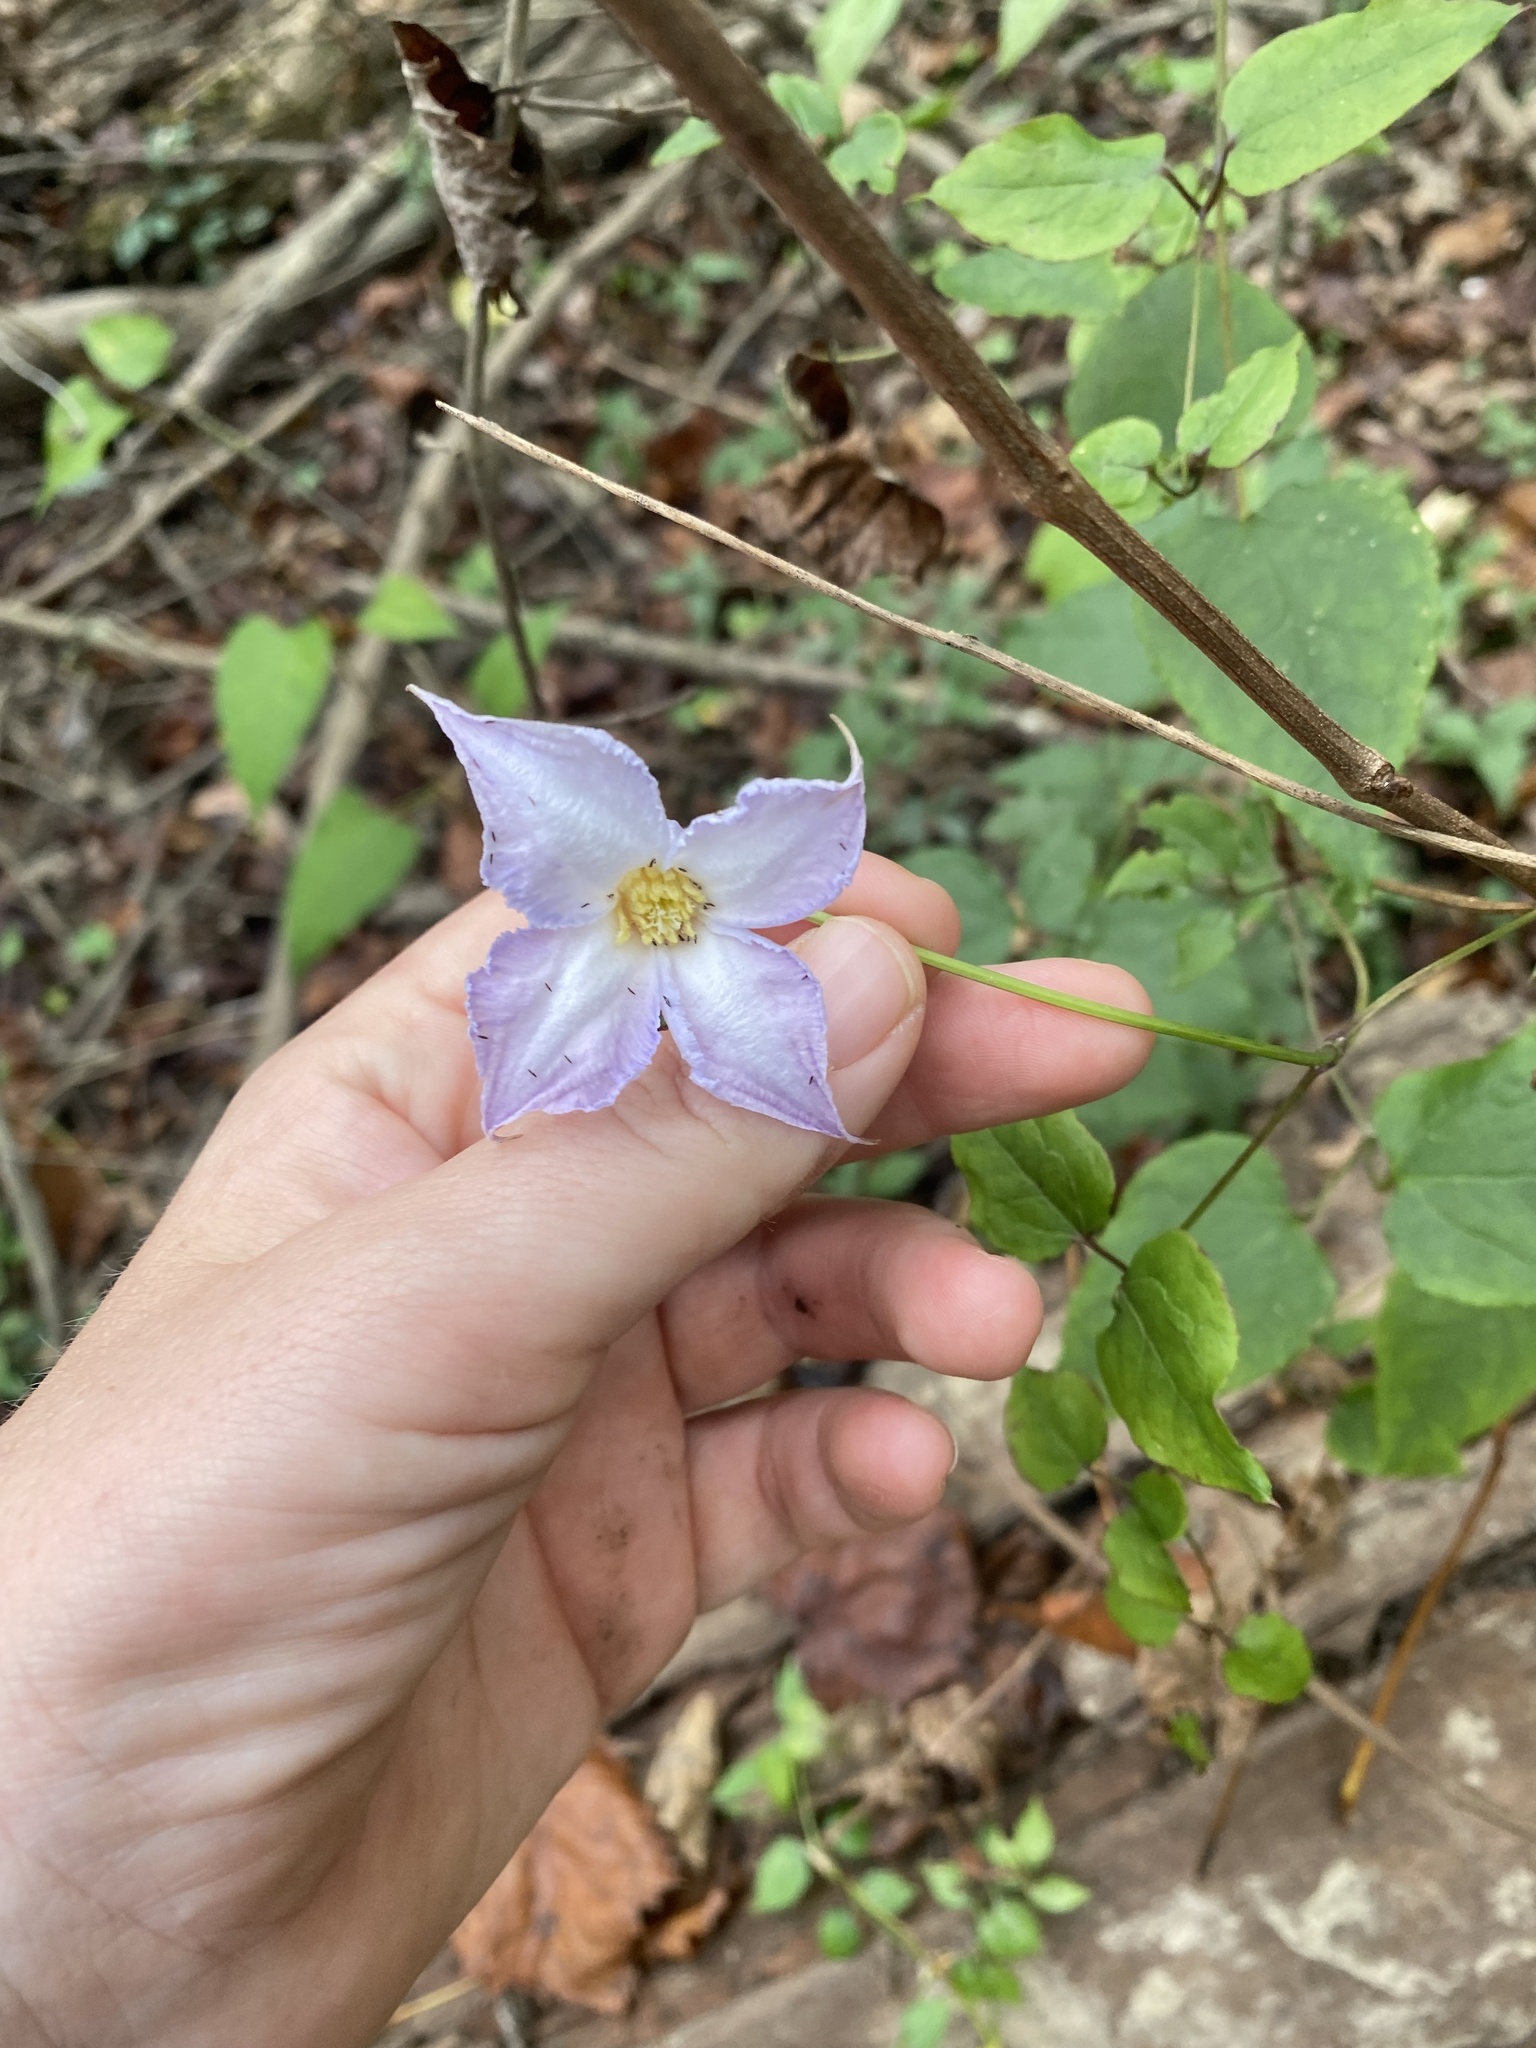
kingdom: Plantae
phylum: Tracheophyta
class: Magnoliopsida
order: Ranunculales
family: Ranunculaceae
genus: Clematis
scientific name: Clematis crispa
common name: Curly clematis
